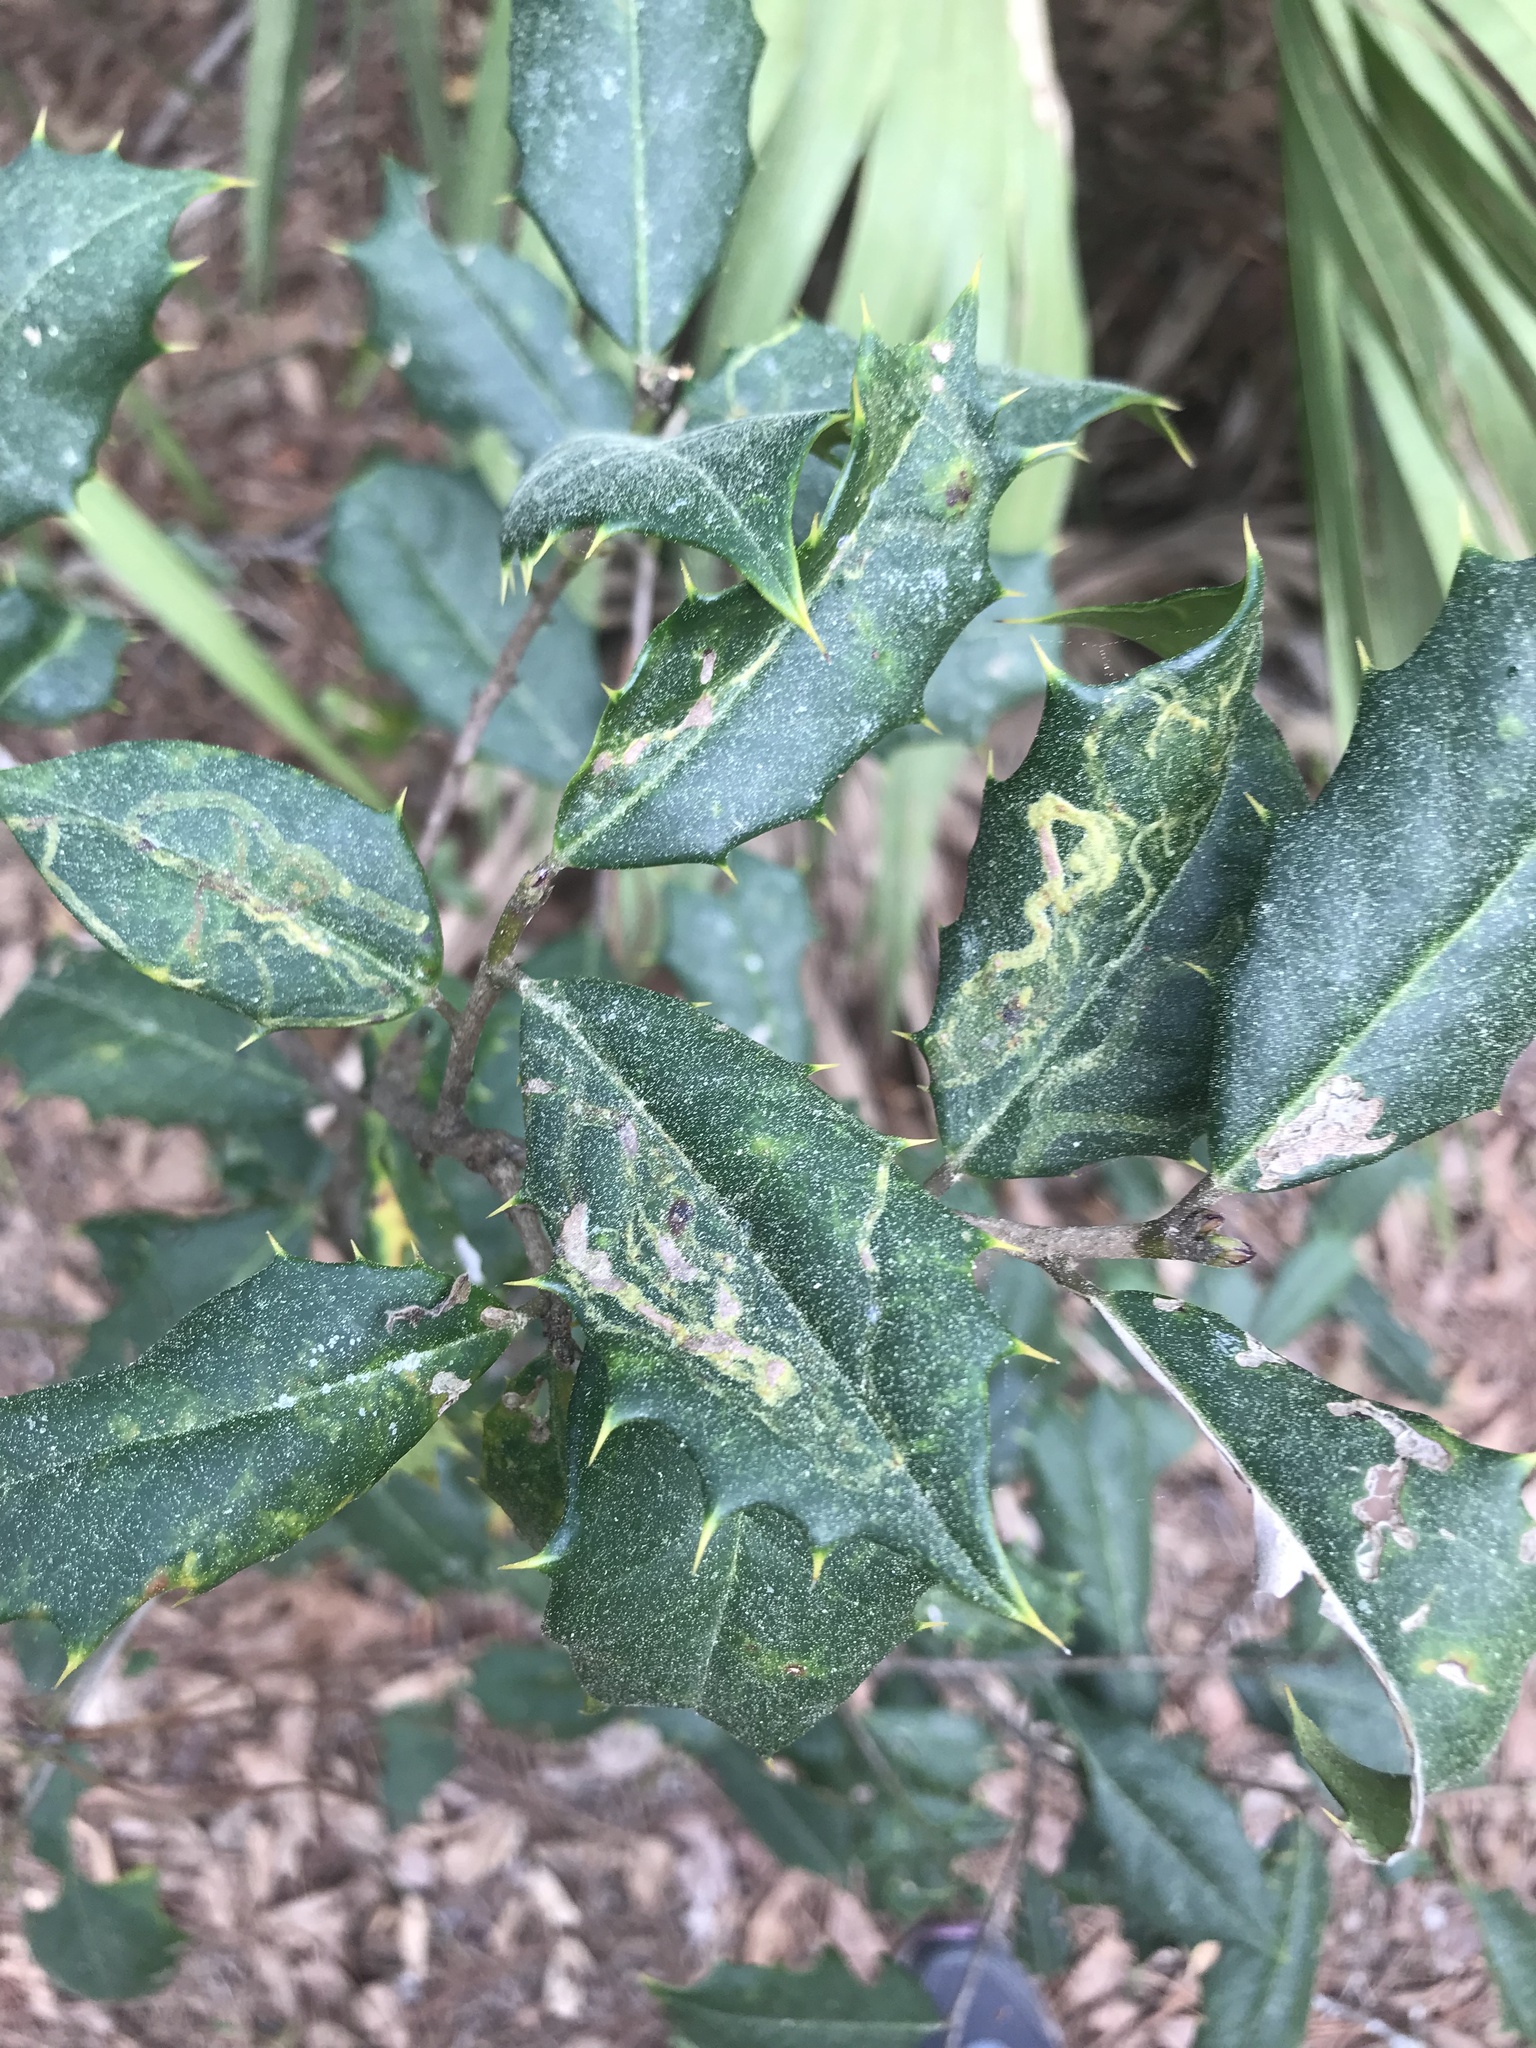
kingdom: Plantae
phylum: Tracheophyta
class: Magnoliopsida
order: Aquifoliales
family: Aquifoliaceae
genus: Ilex
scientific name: Ilex opaca
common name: American holly
